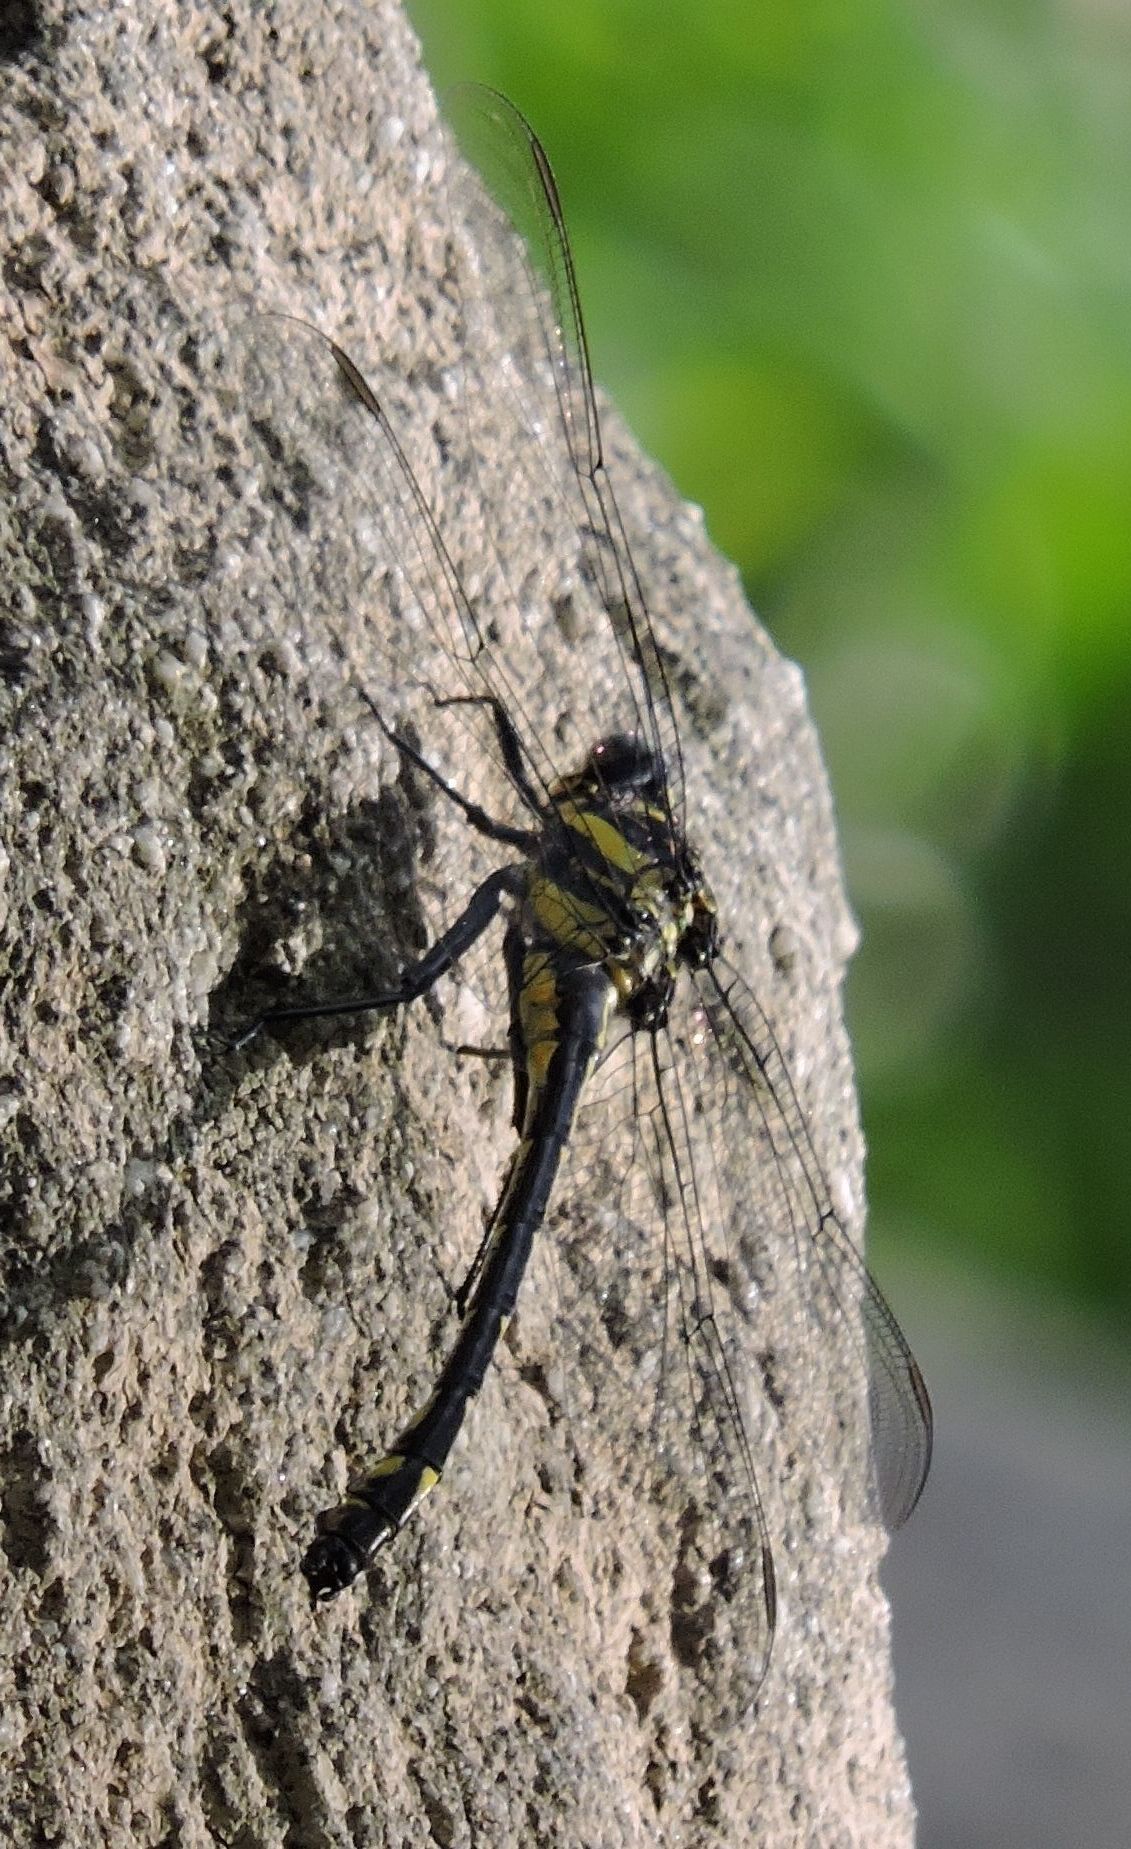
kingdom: Animalia
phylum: Arthropoda
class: Insecta
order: Odonata
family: Gomphidae
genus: Hagenius
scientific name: Hagenius brevistylus
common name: Dragonhunter
